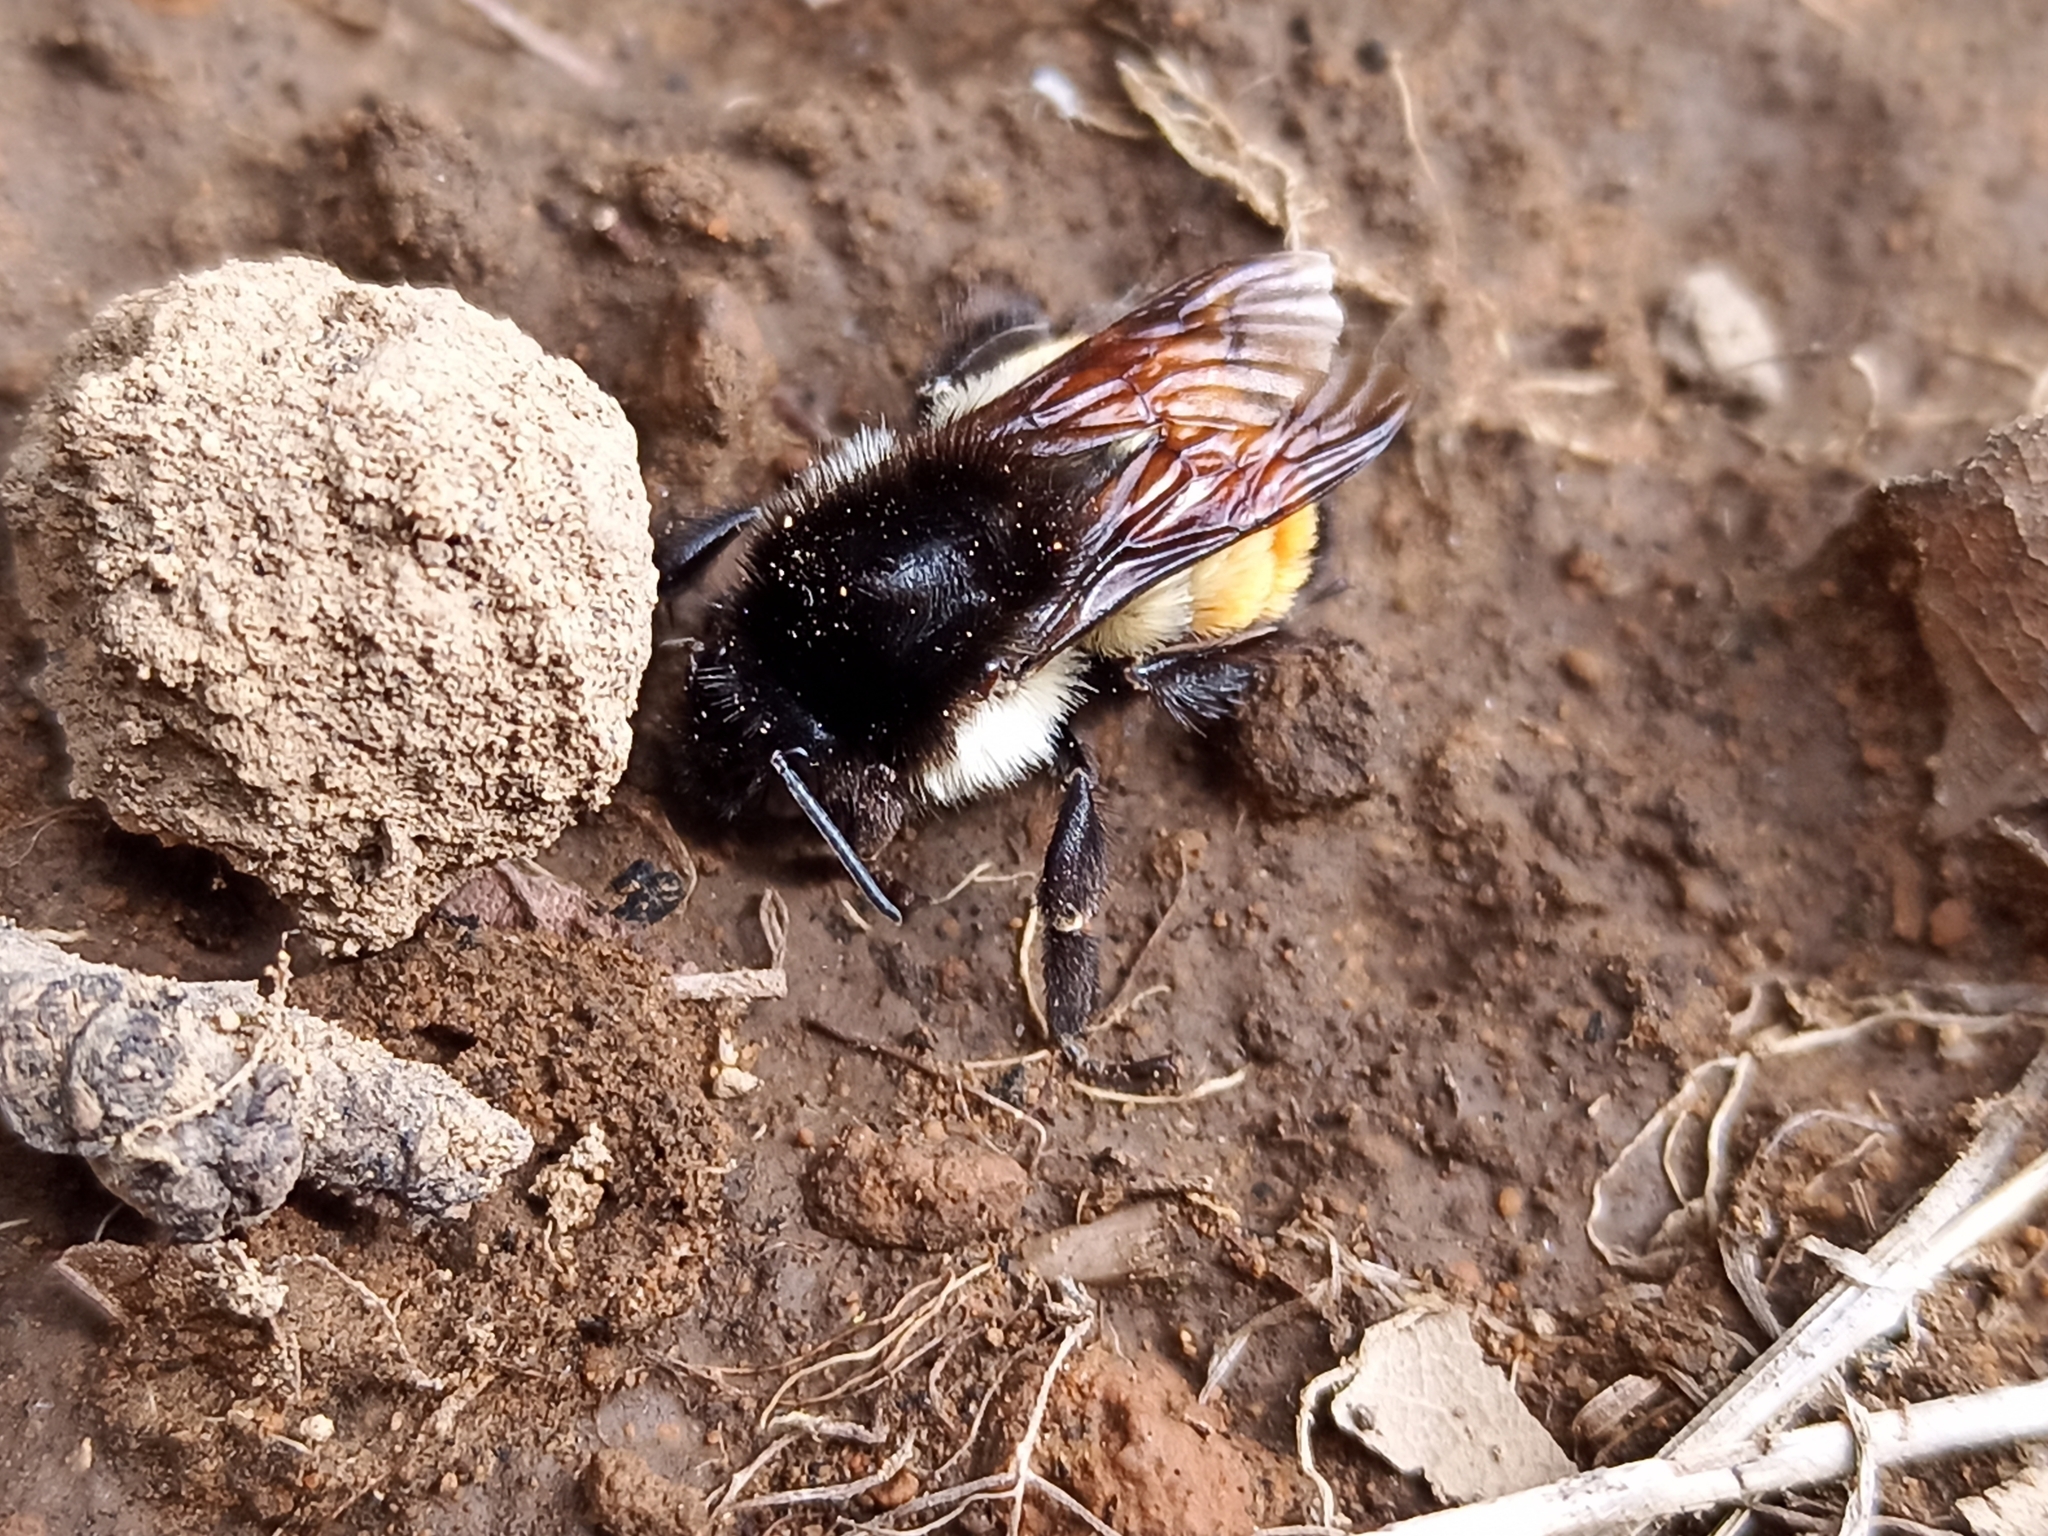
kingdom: Animalia
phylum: Arthropoda
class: Insecta
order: Hymenoptera
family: Apidae
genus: Bombus
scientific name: Bombus ephippiatus
